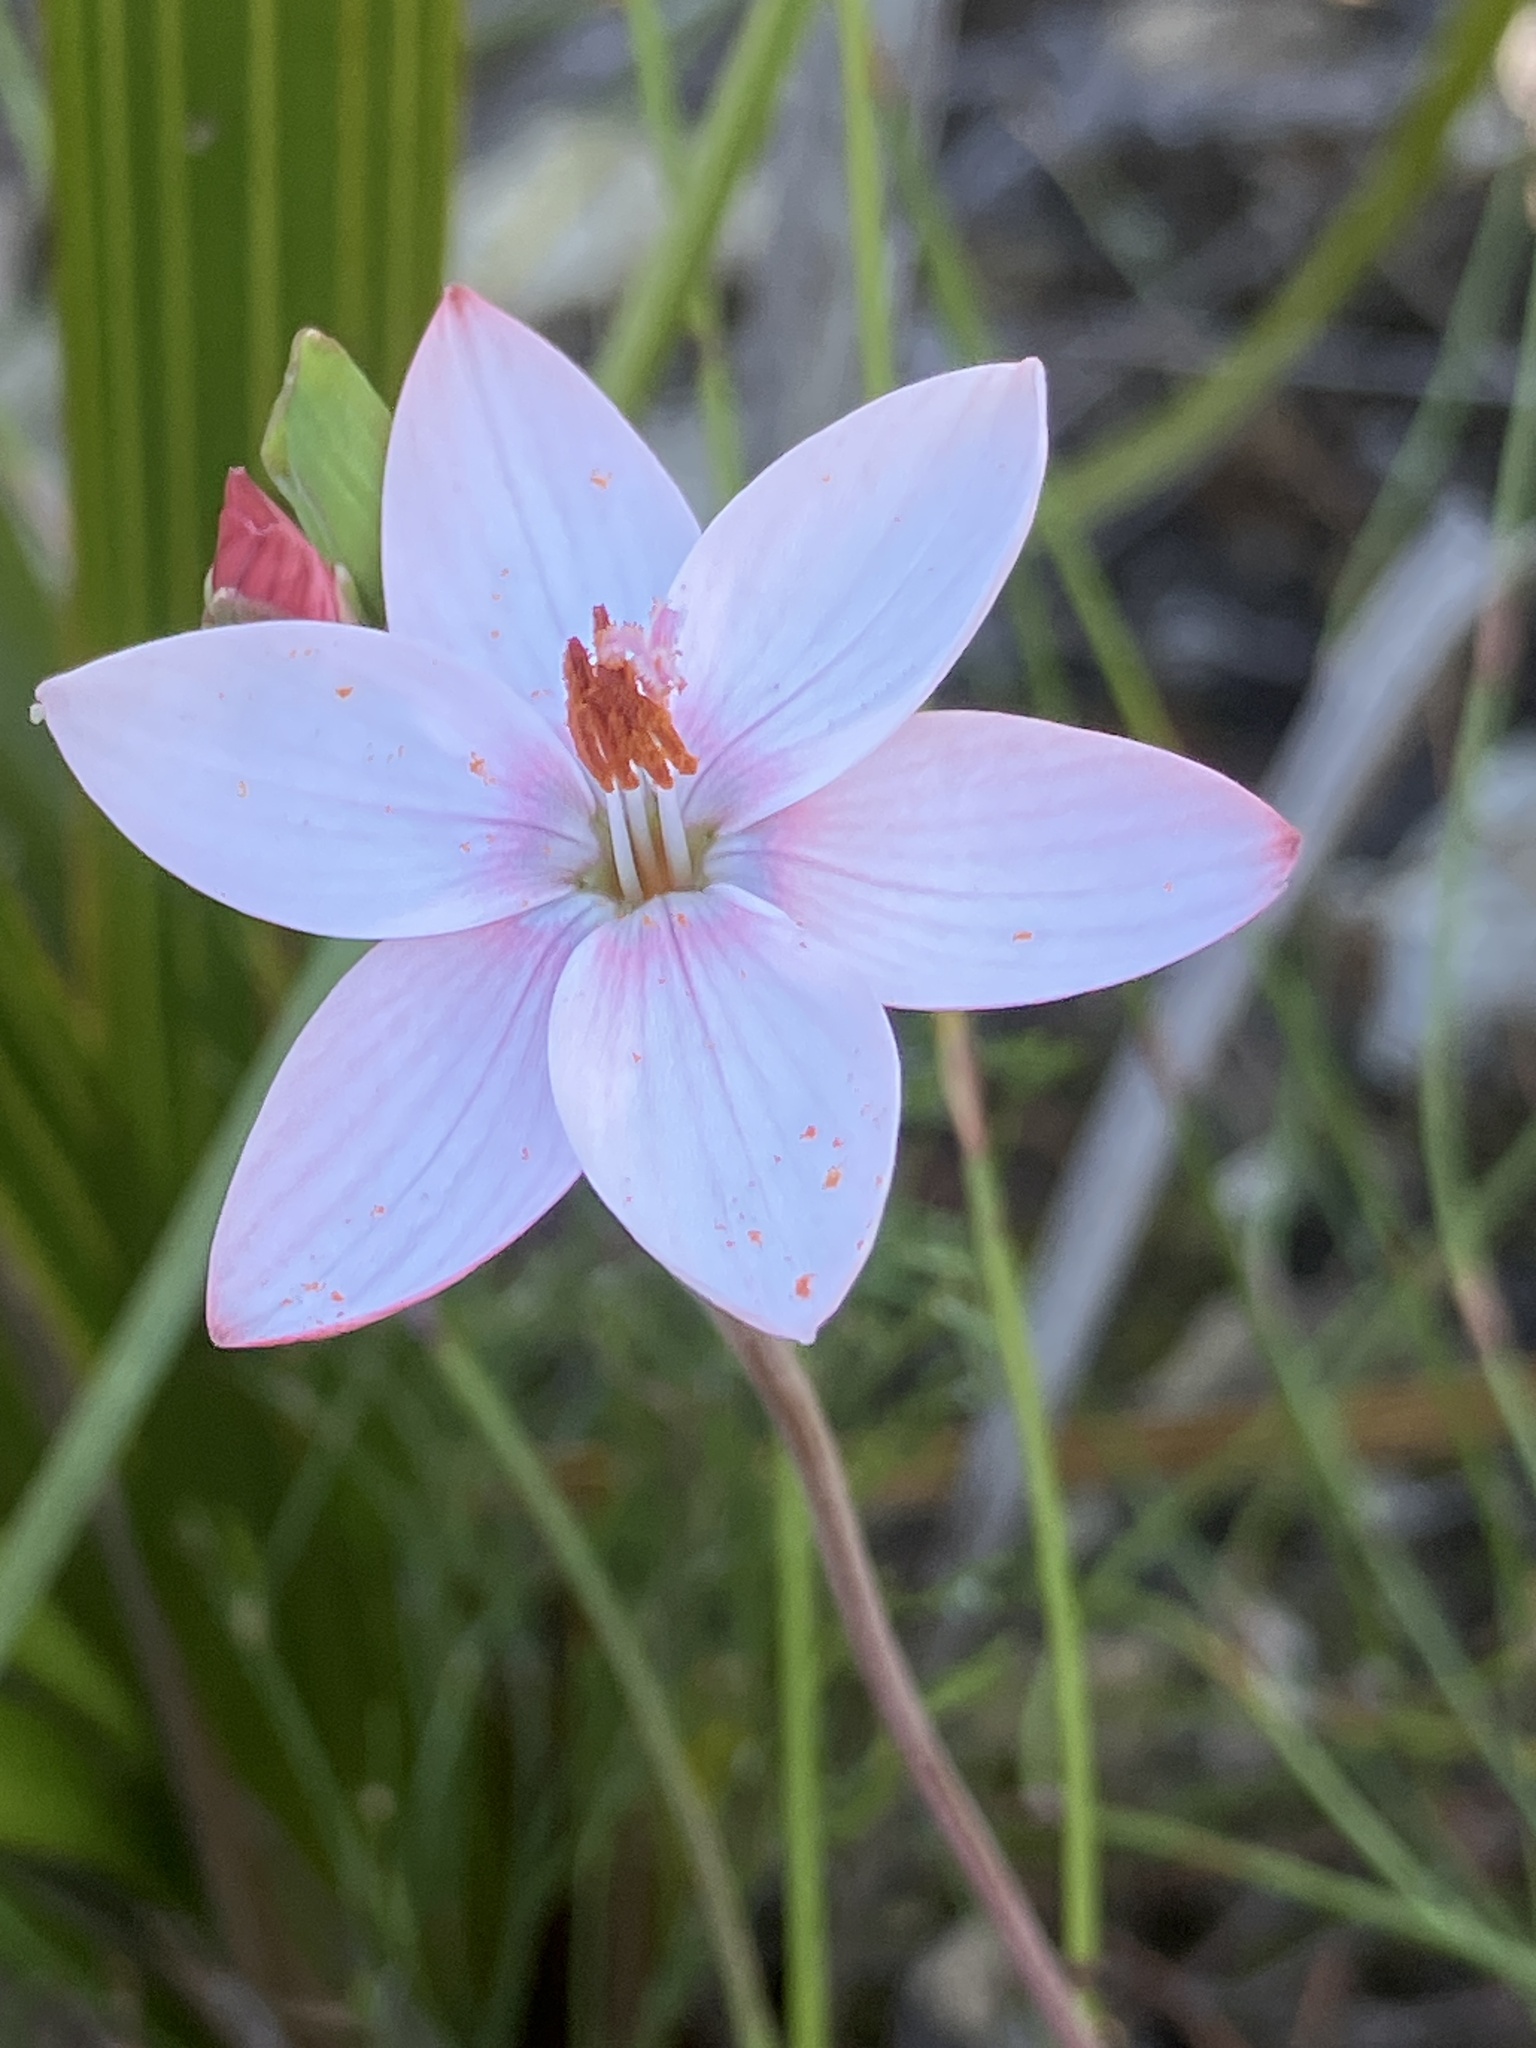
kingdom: Plantae
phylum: Tracheophyta
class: Liliopsida
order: Asparagales
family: Iridaceae
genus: Geissorhiza
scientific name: Geissorhiza ovata
